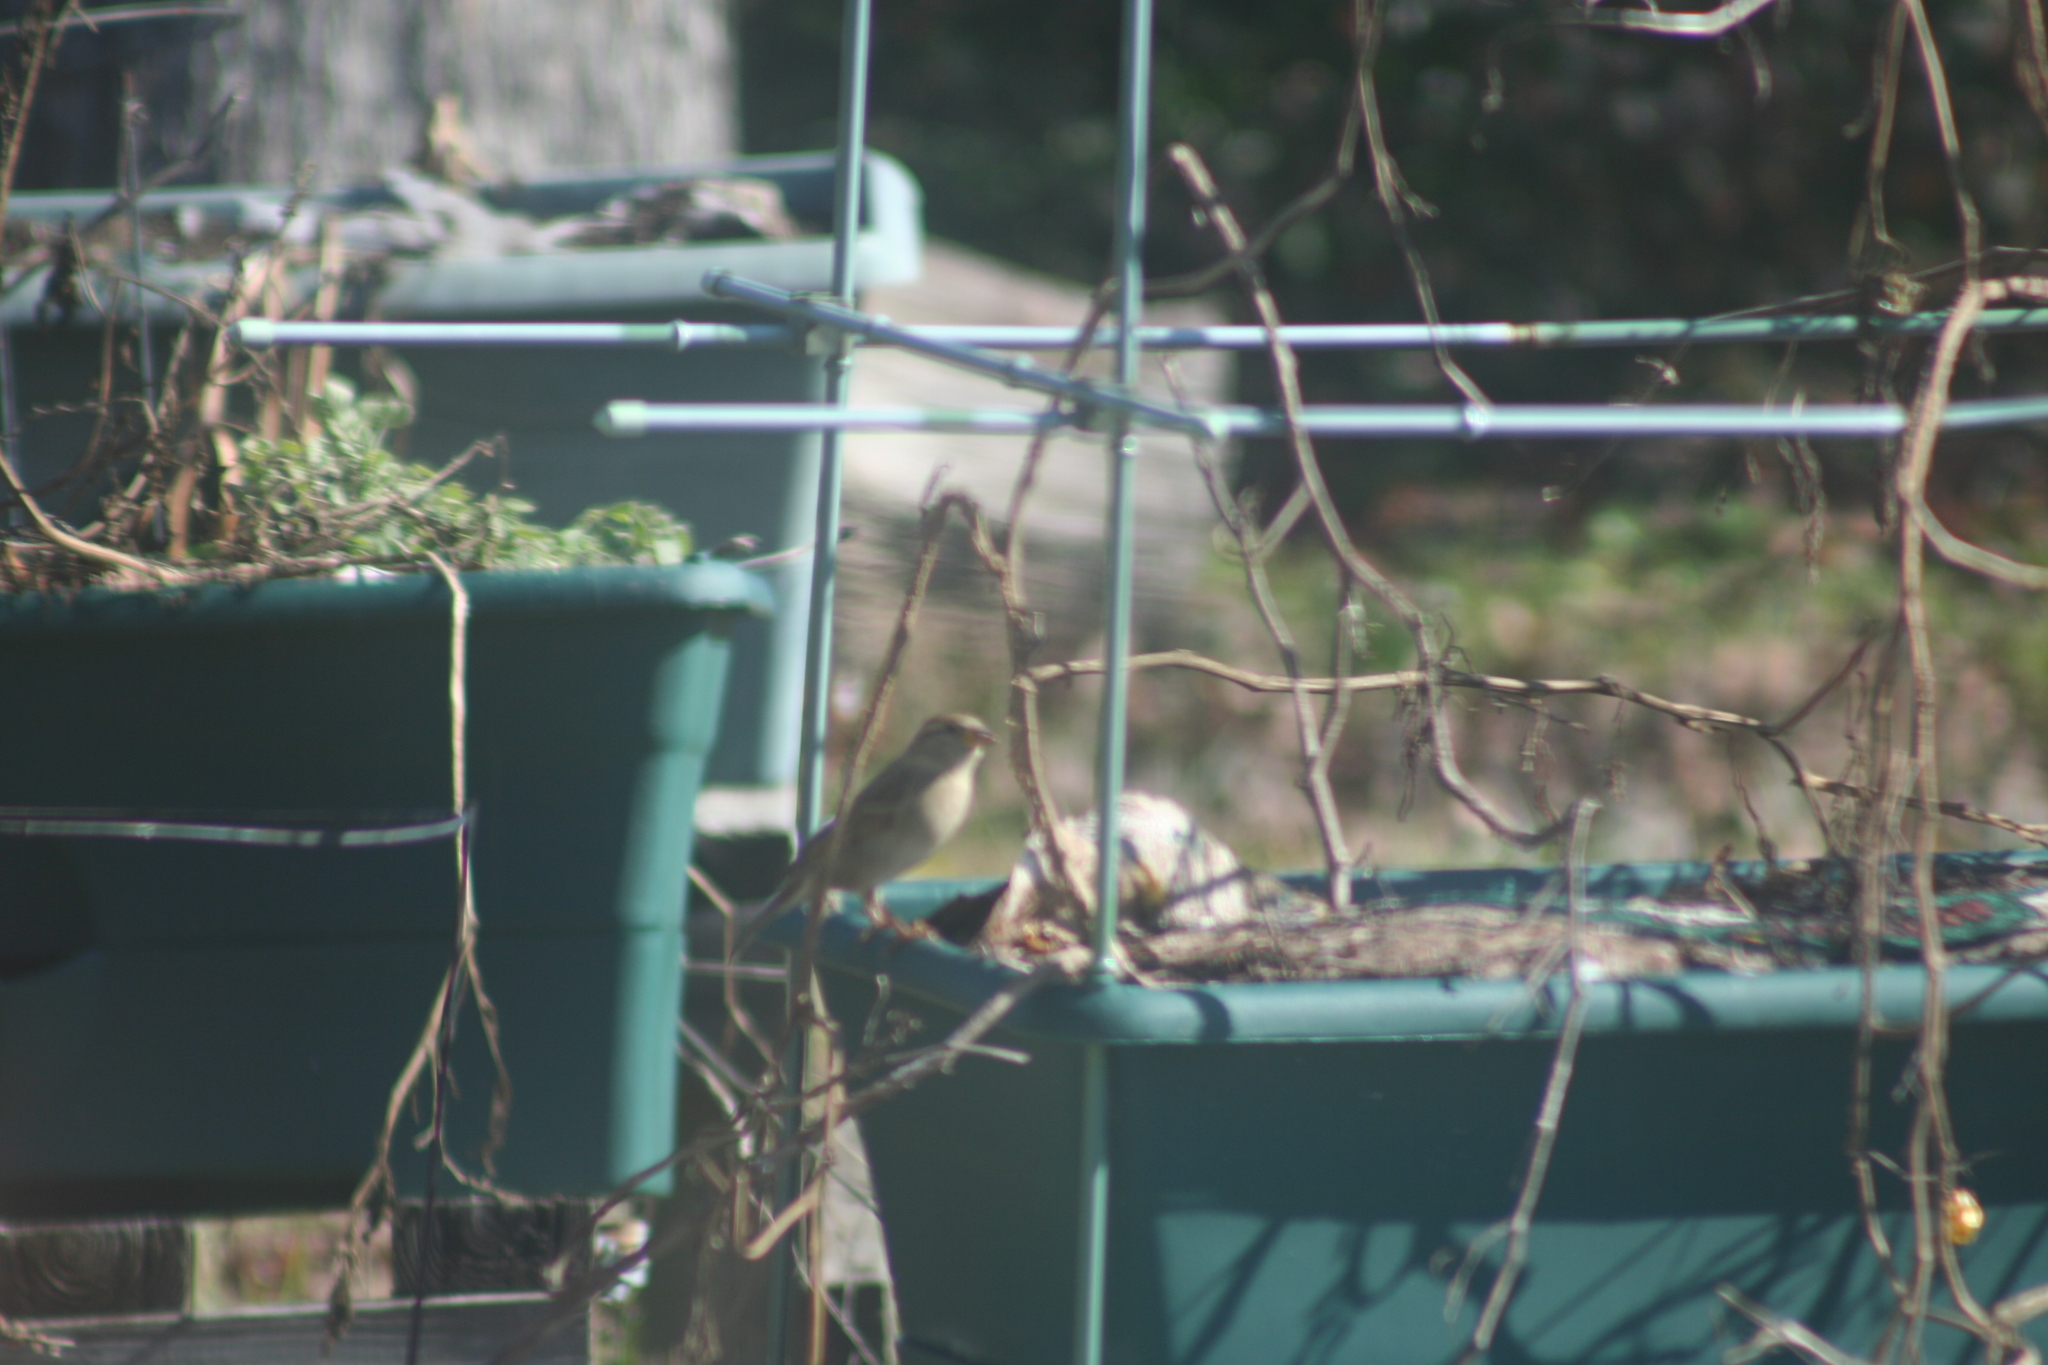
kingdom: Animalia
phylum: Chordata
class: Aves
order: Passeriformes
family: Passeridae
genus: Passer
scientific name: Passer domesticus
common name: House sparrow
